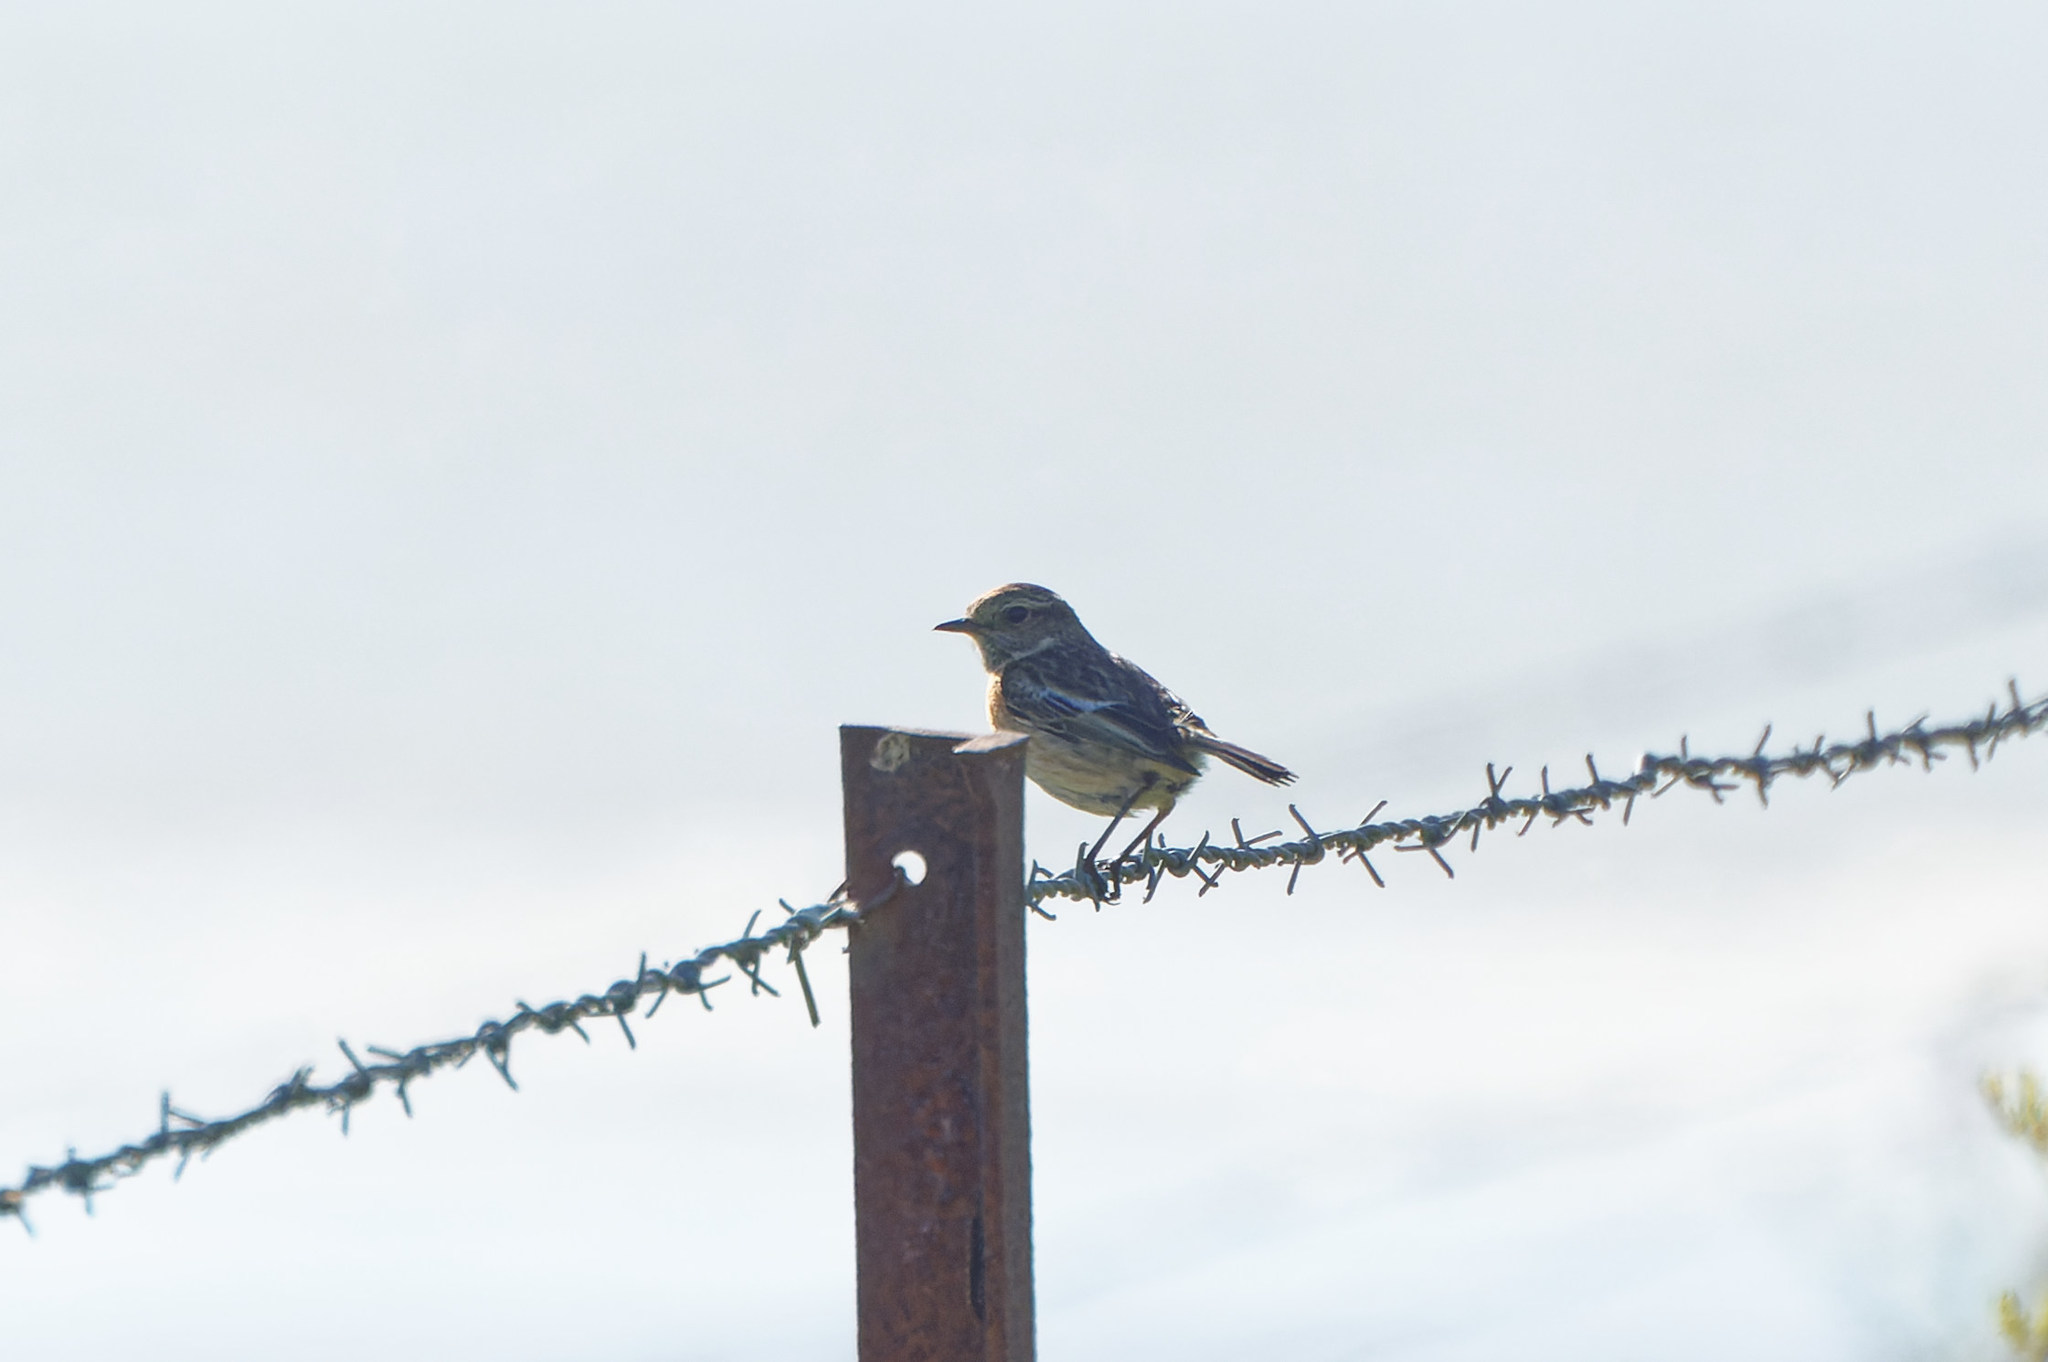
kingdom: Animalia
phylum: Chordata
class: Aves
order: Passeriformes
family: Muscicapidae
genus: Saxicola
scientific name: Saxicola rubicola
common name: European stonechat
